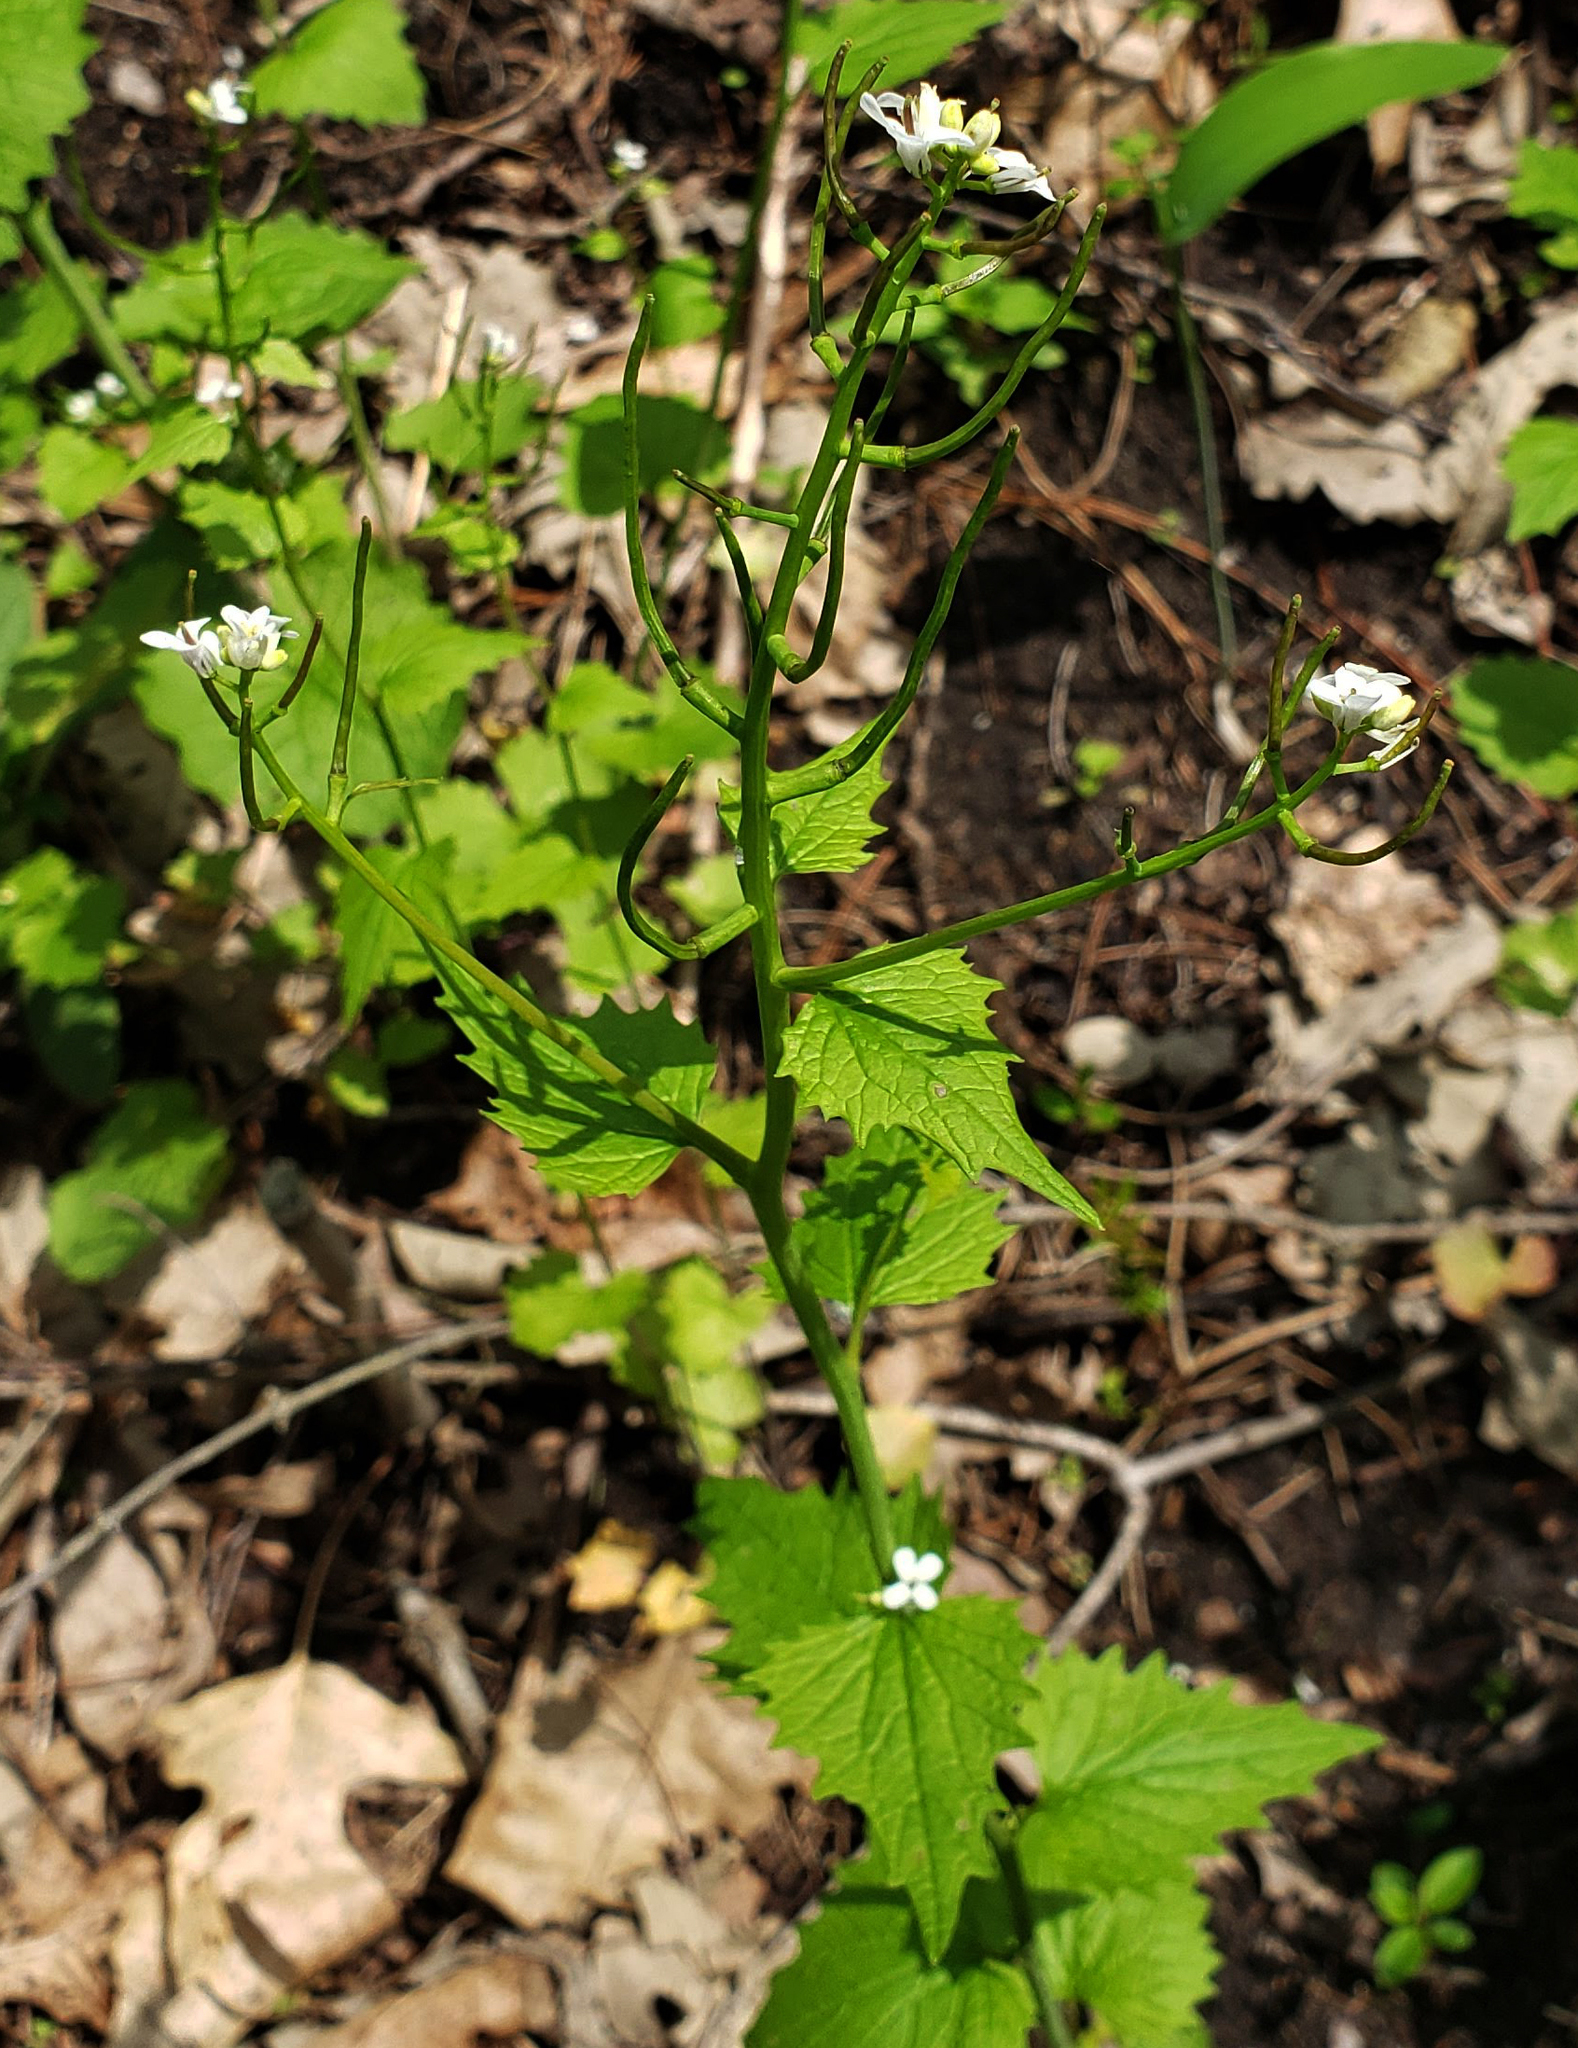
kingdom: Plantae
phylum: Tracheophyta
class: Magnoliopsida
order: Brassicales
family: Brassicaceae
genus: Alliaria
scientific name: Alliaria petiolata
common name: Garlic mustard
